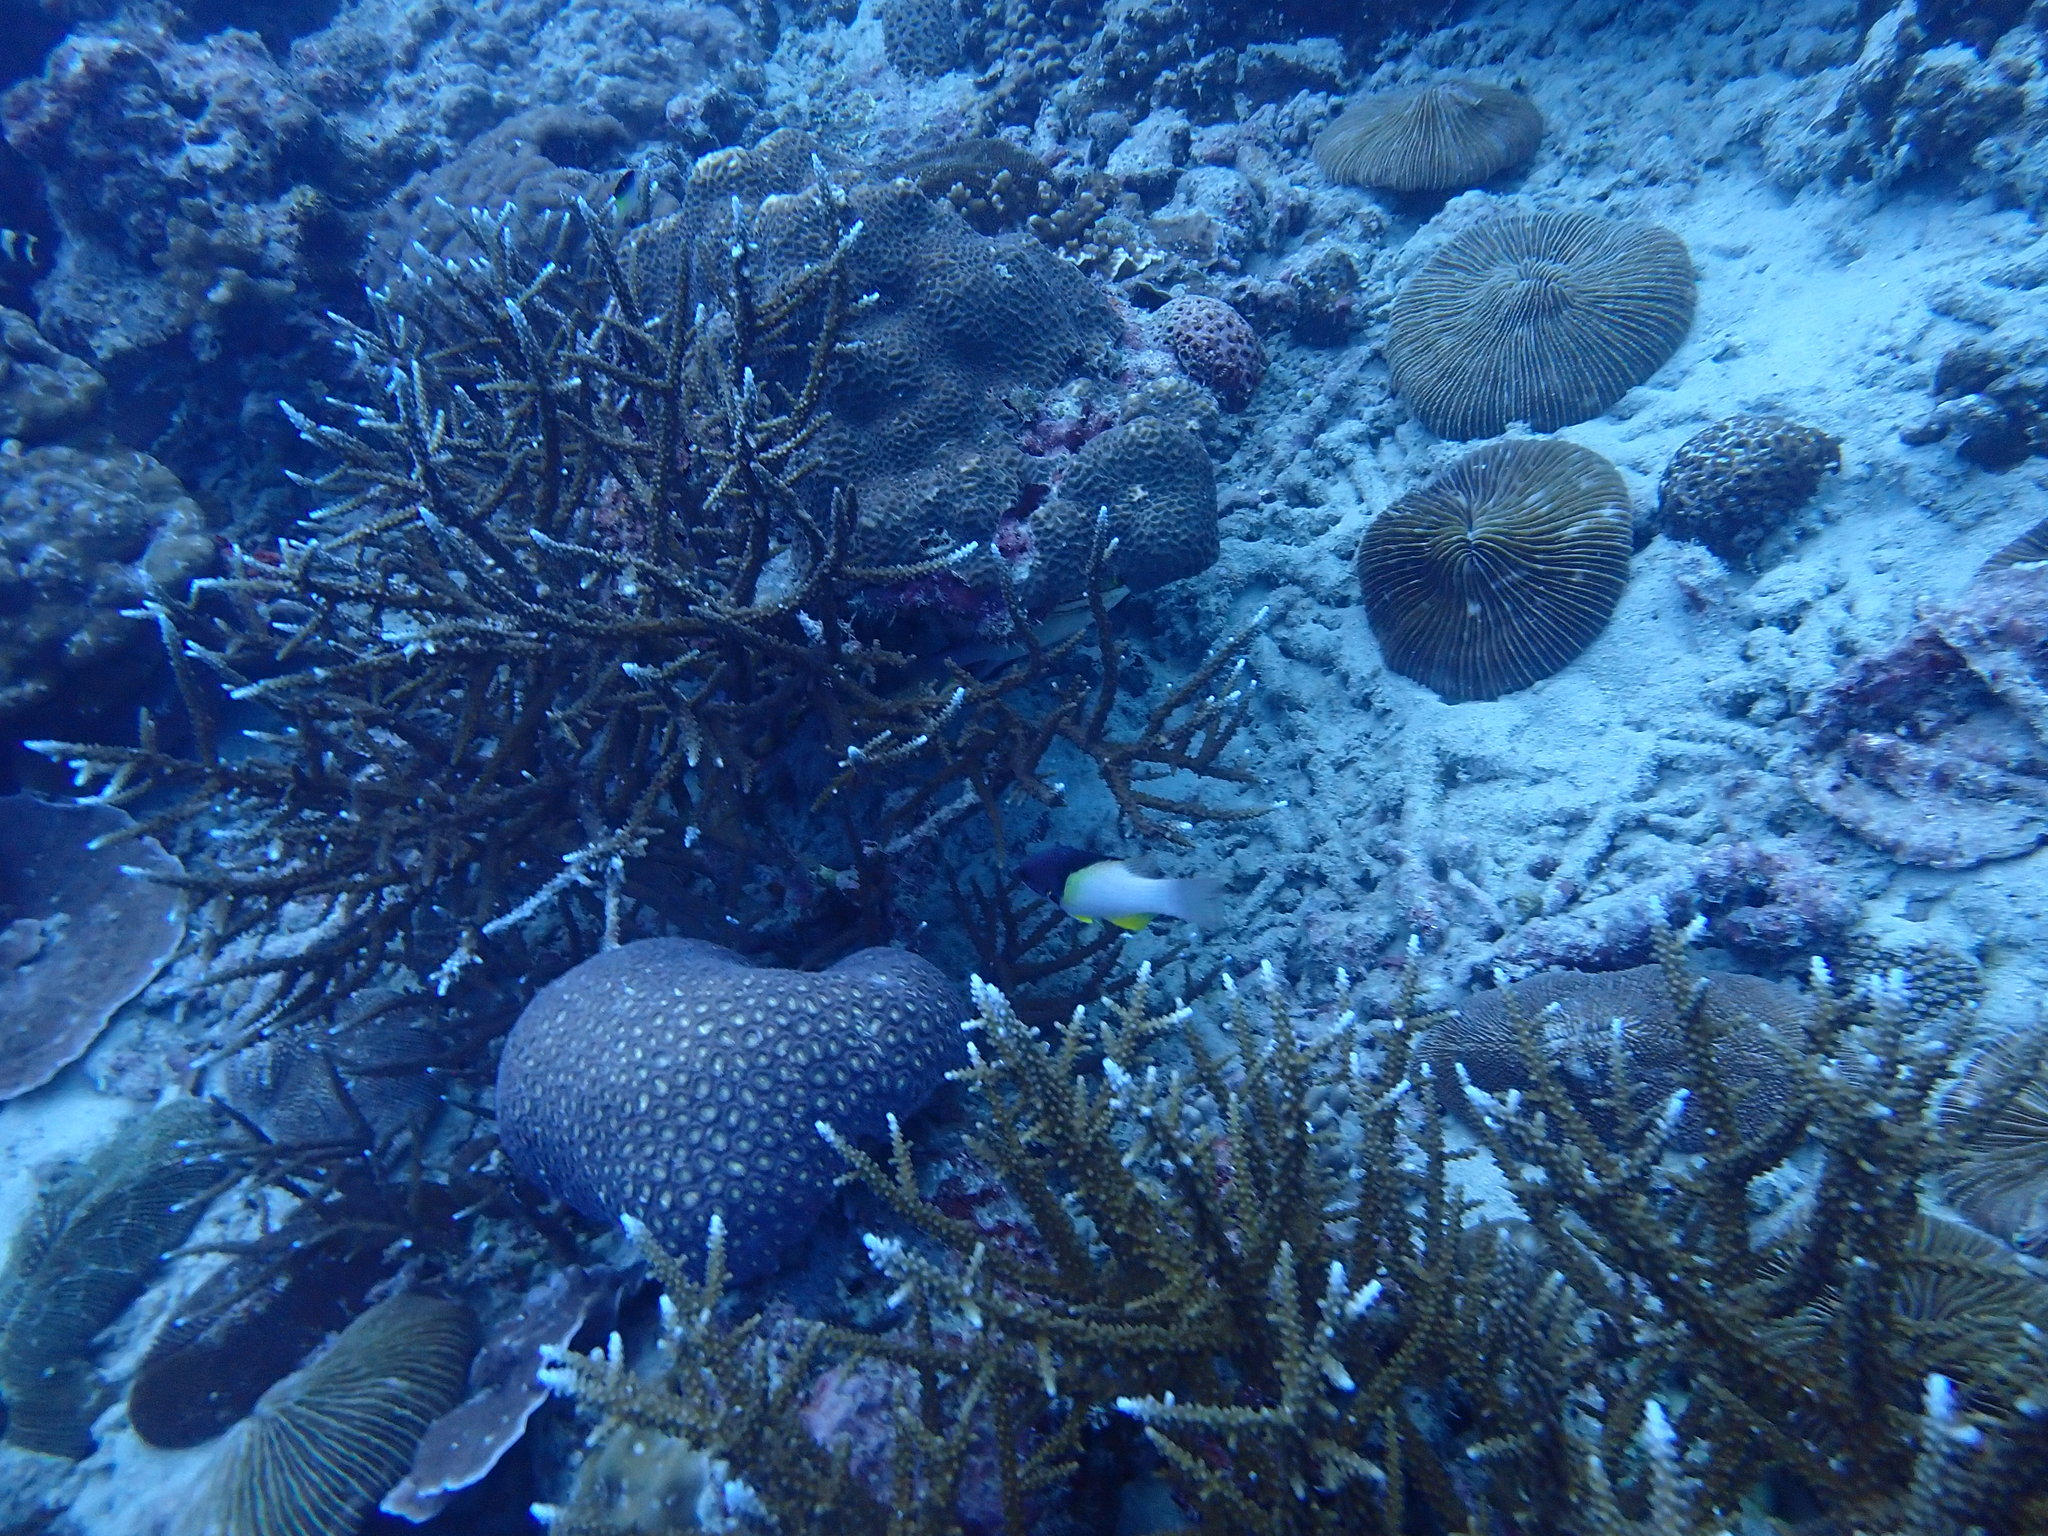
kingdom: Animalia
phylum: Chordata
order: Perciformes
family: Labridae
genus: Bodianus
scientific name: Bodianus mesothorax
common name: Coral hogfish
